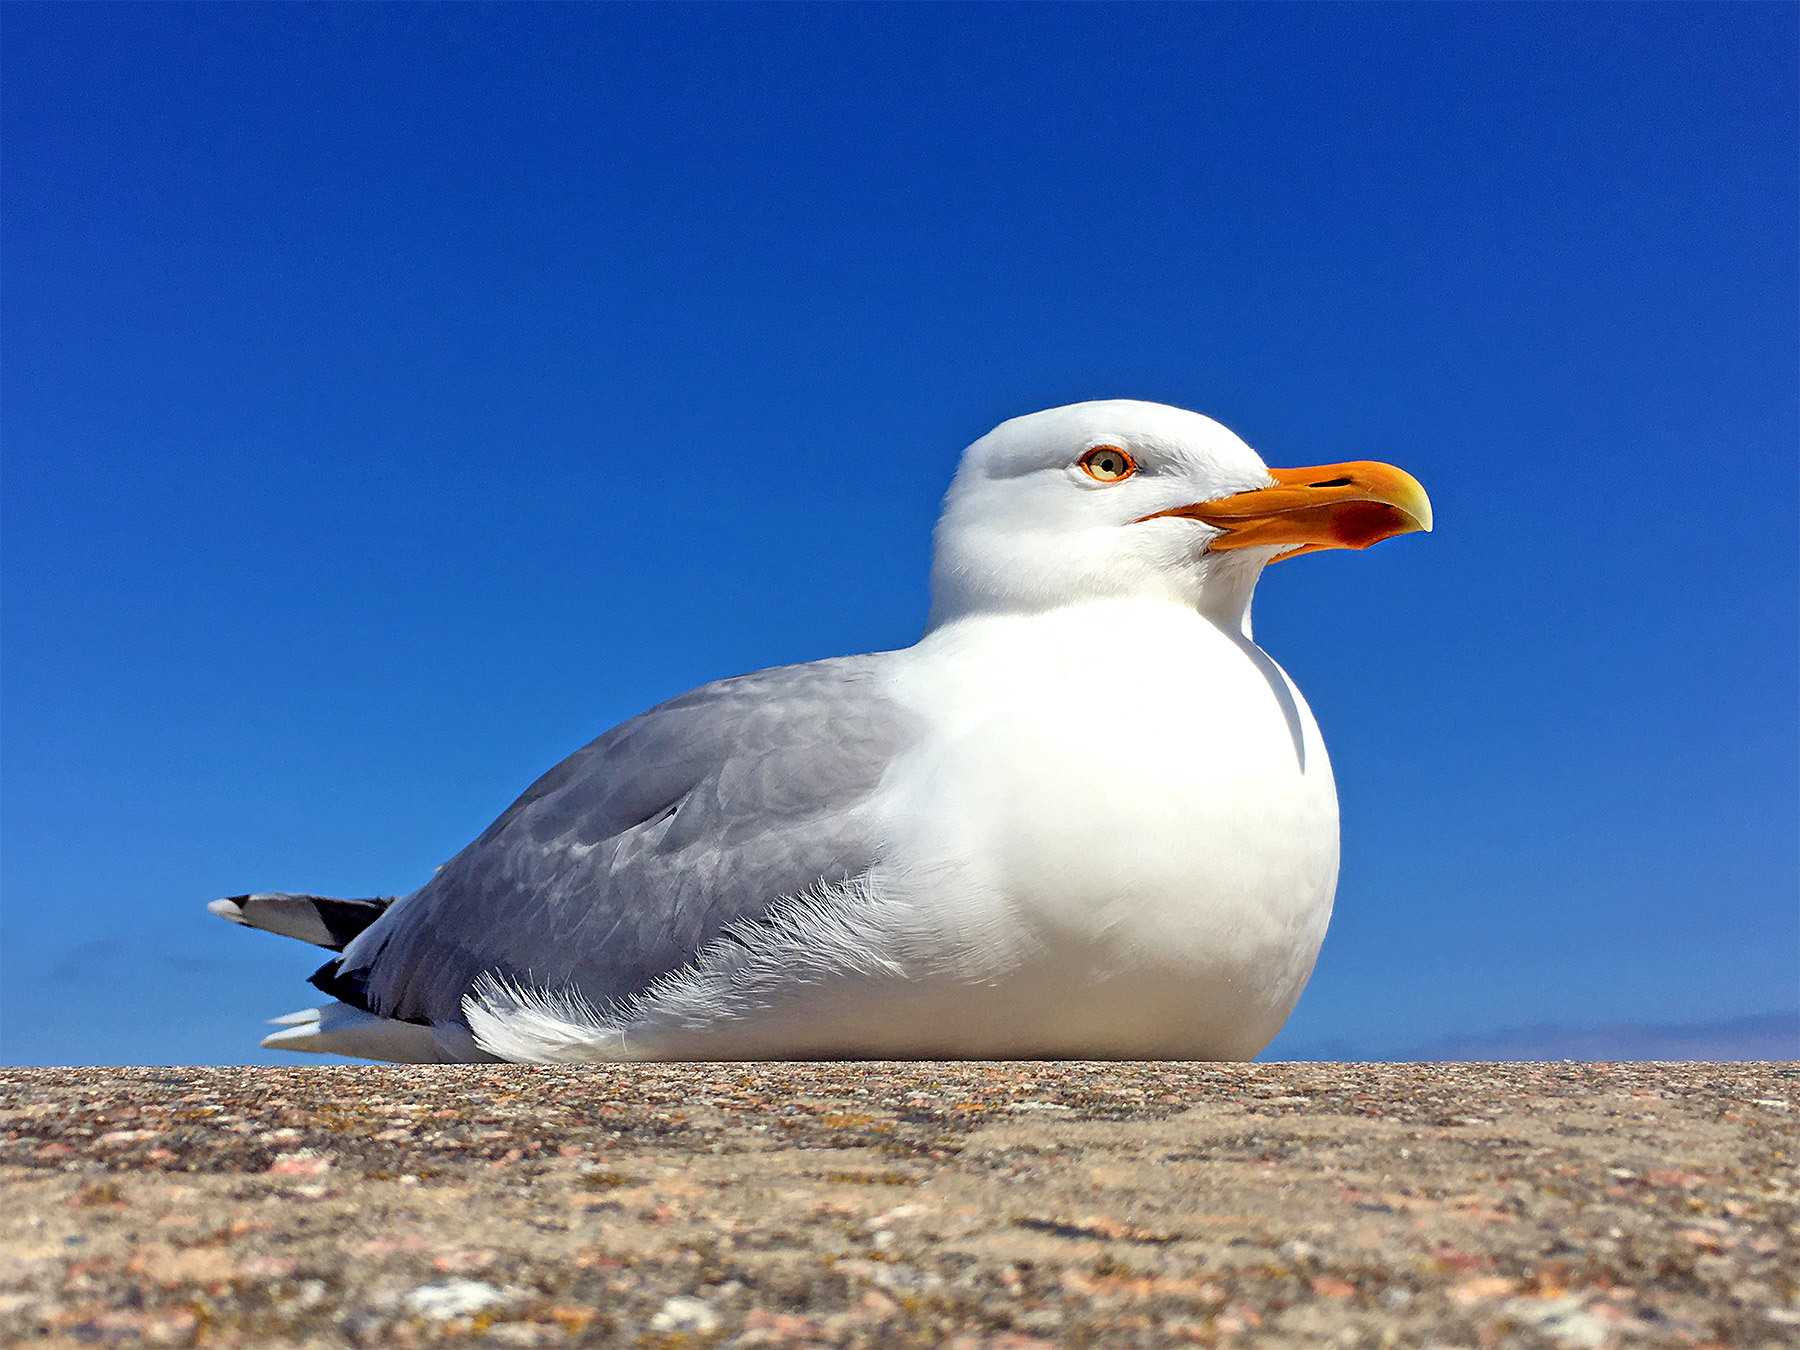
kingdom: Animalia
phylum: Chordata
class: Aves
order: Charadriiformes
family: Laridae
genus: Larus
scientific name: Larus argentatus
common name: Herring gull
